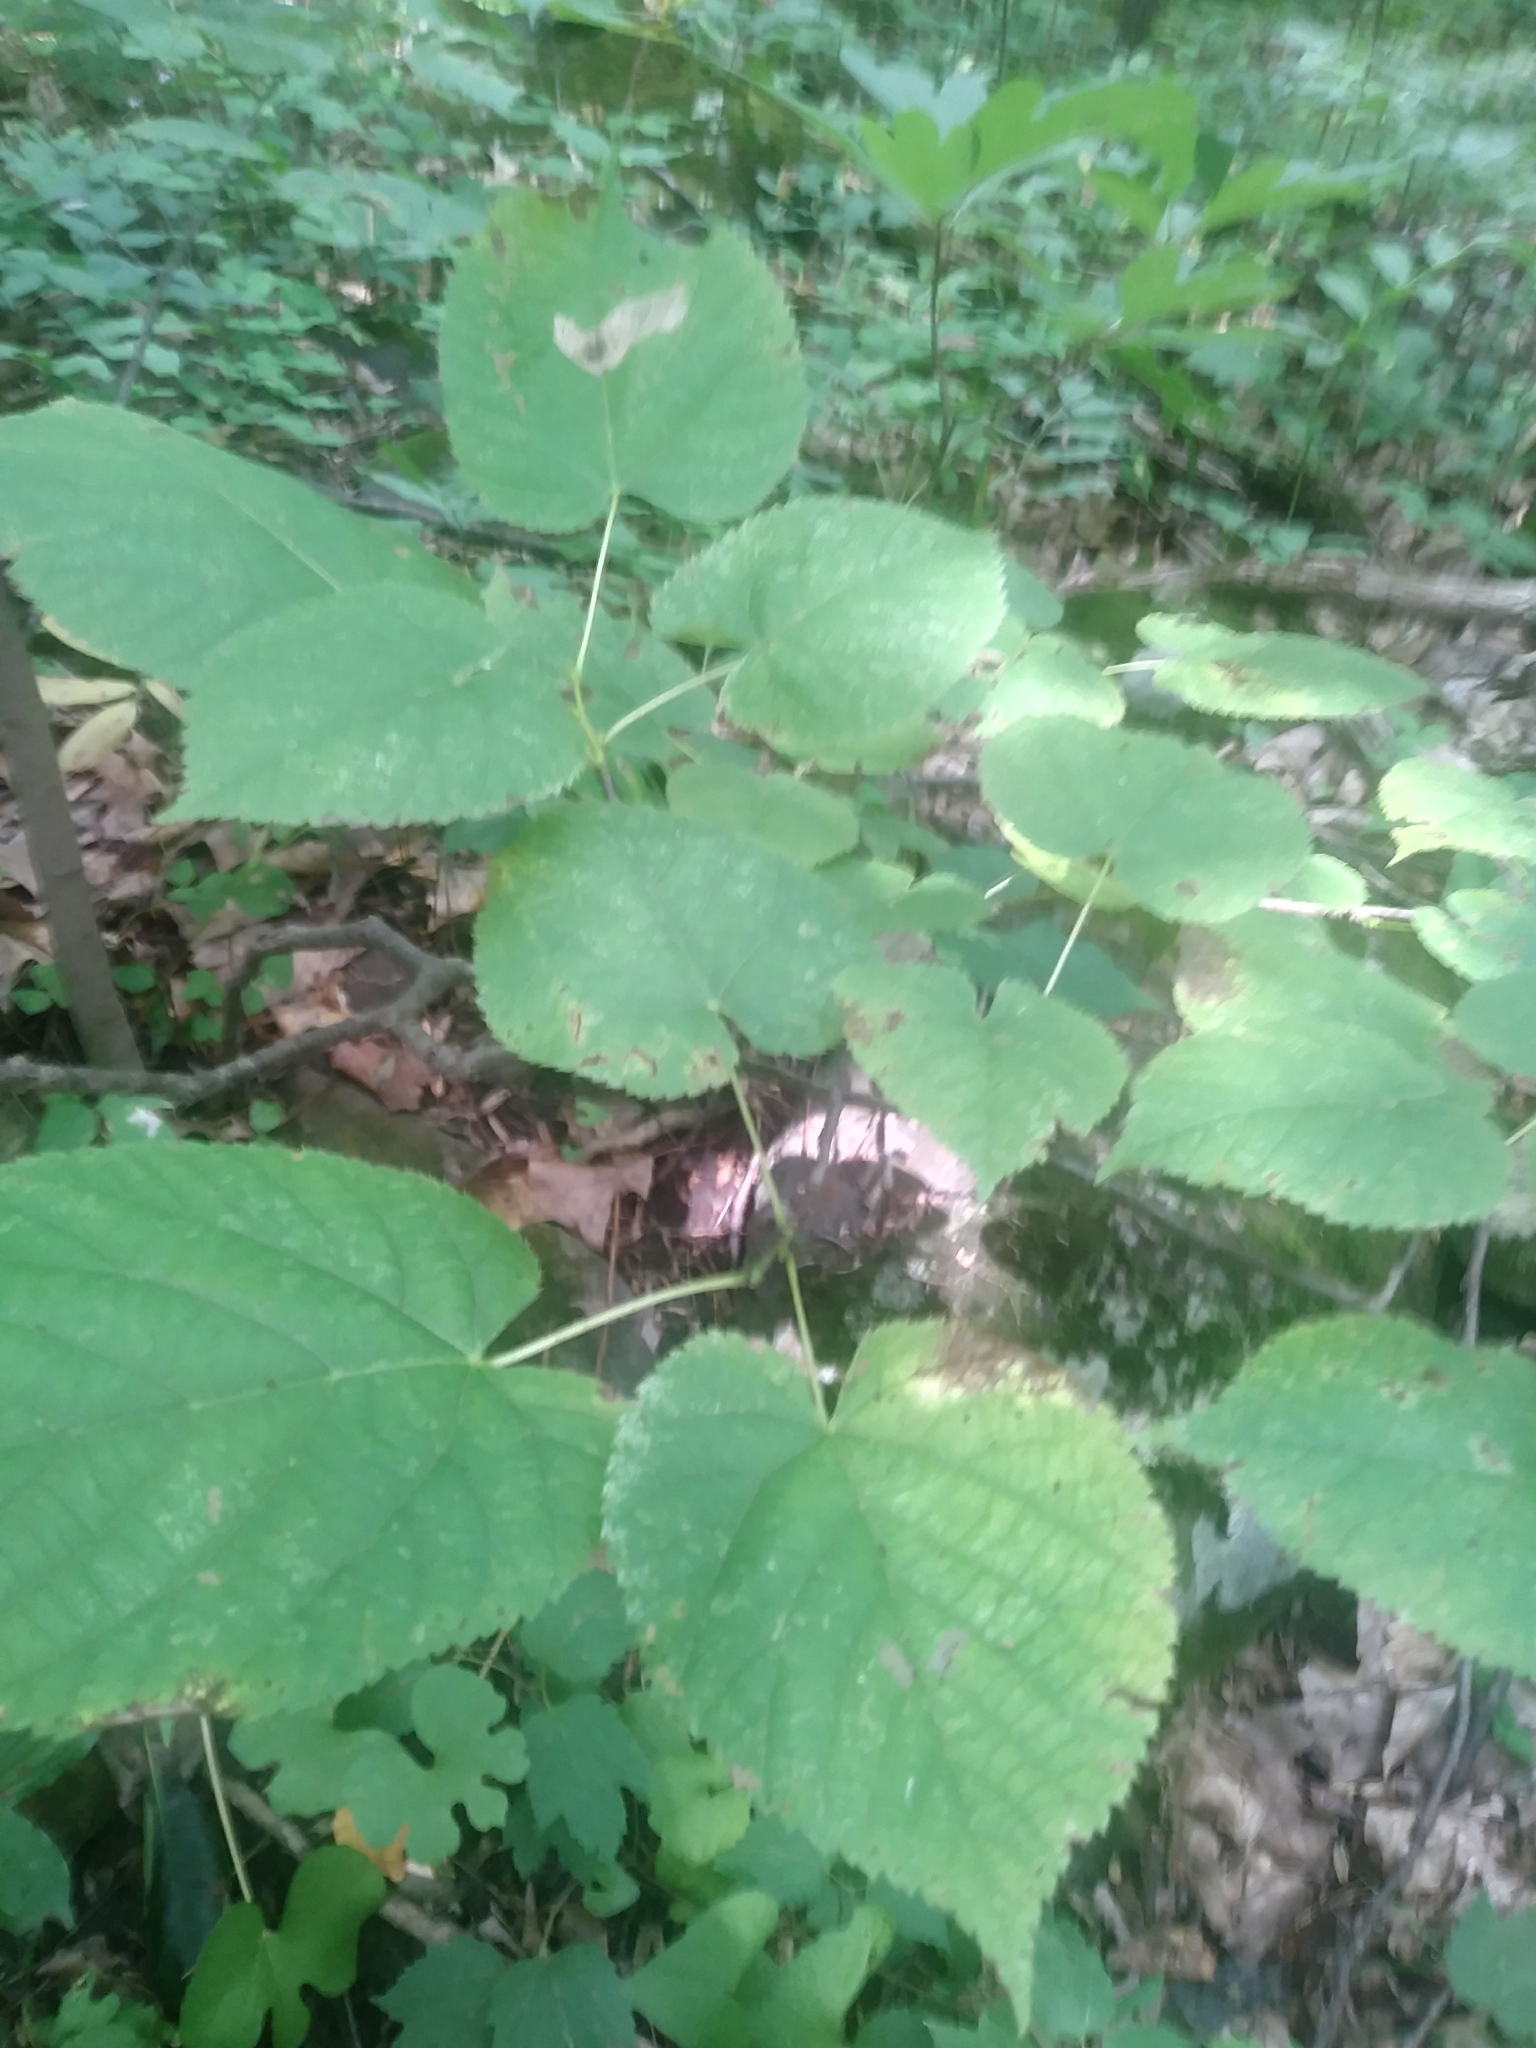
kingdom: Plantae
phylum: Tracheophyta
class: Magnoliopsida
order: Malvales
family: Malvaceae
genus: Tilia
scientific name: Tilia americana
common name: Basswood
